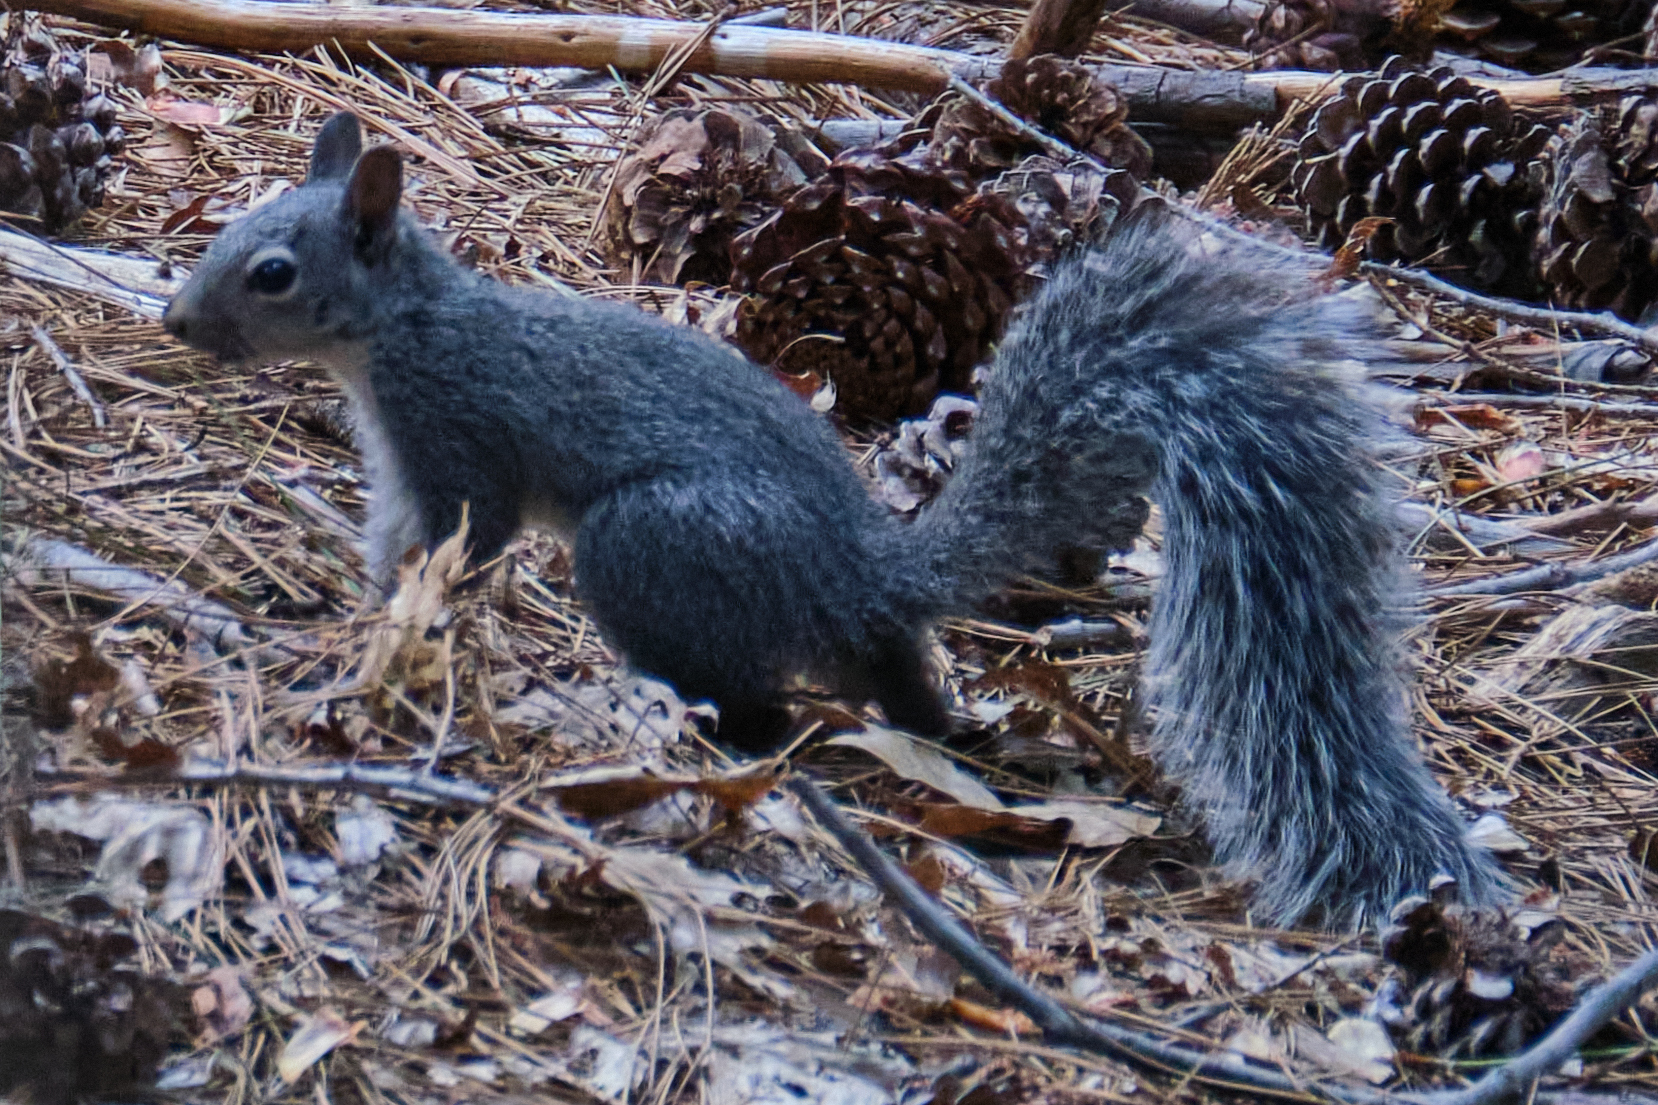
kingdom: Animalia
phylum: Chordata
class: Mammalia
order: Rodentia
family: Sciuridae
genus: Sciurus
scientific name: Sciurus griseus
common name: Western gray squirrel
